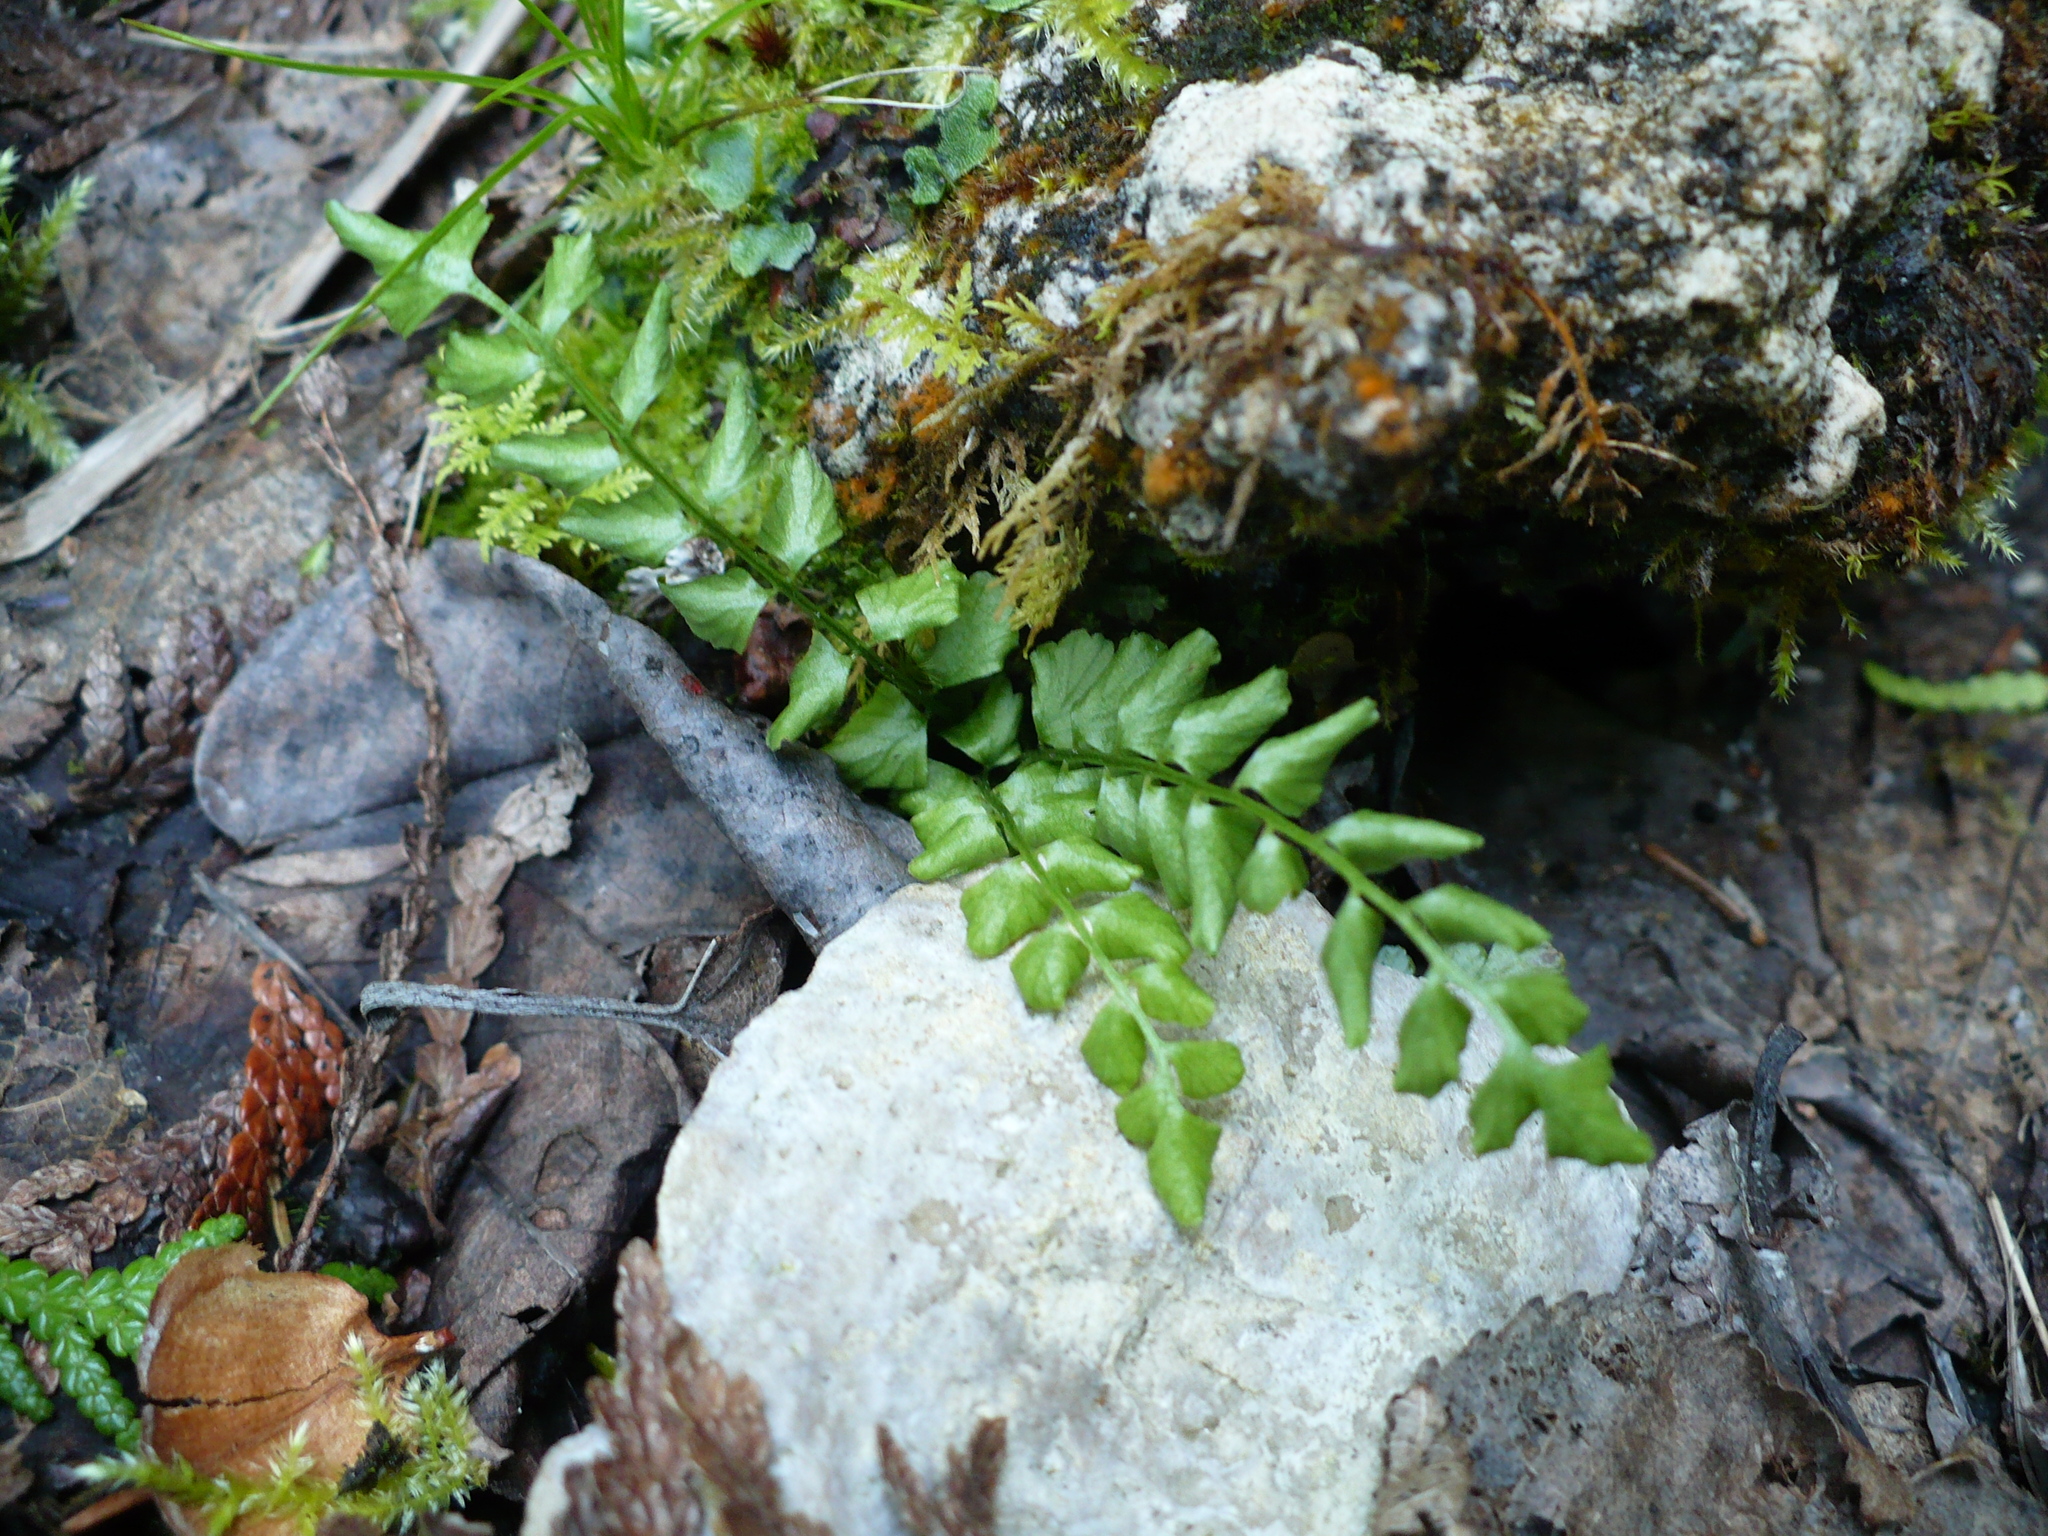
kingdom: Plantae
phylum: Tracheophyta
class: Polypodiopsida
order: Polypodiales
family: Aspleniaceae
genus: Asplenium
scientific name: Asplenium viride
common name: Green spleenwort
